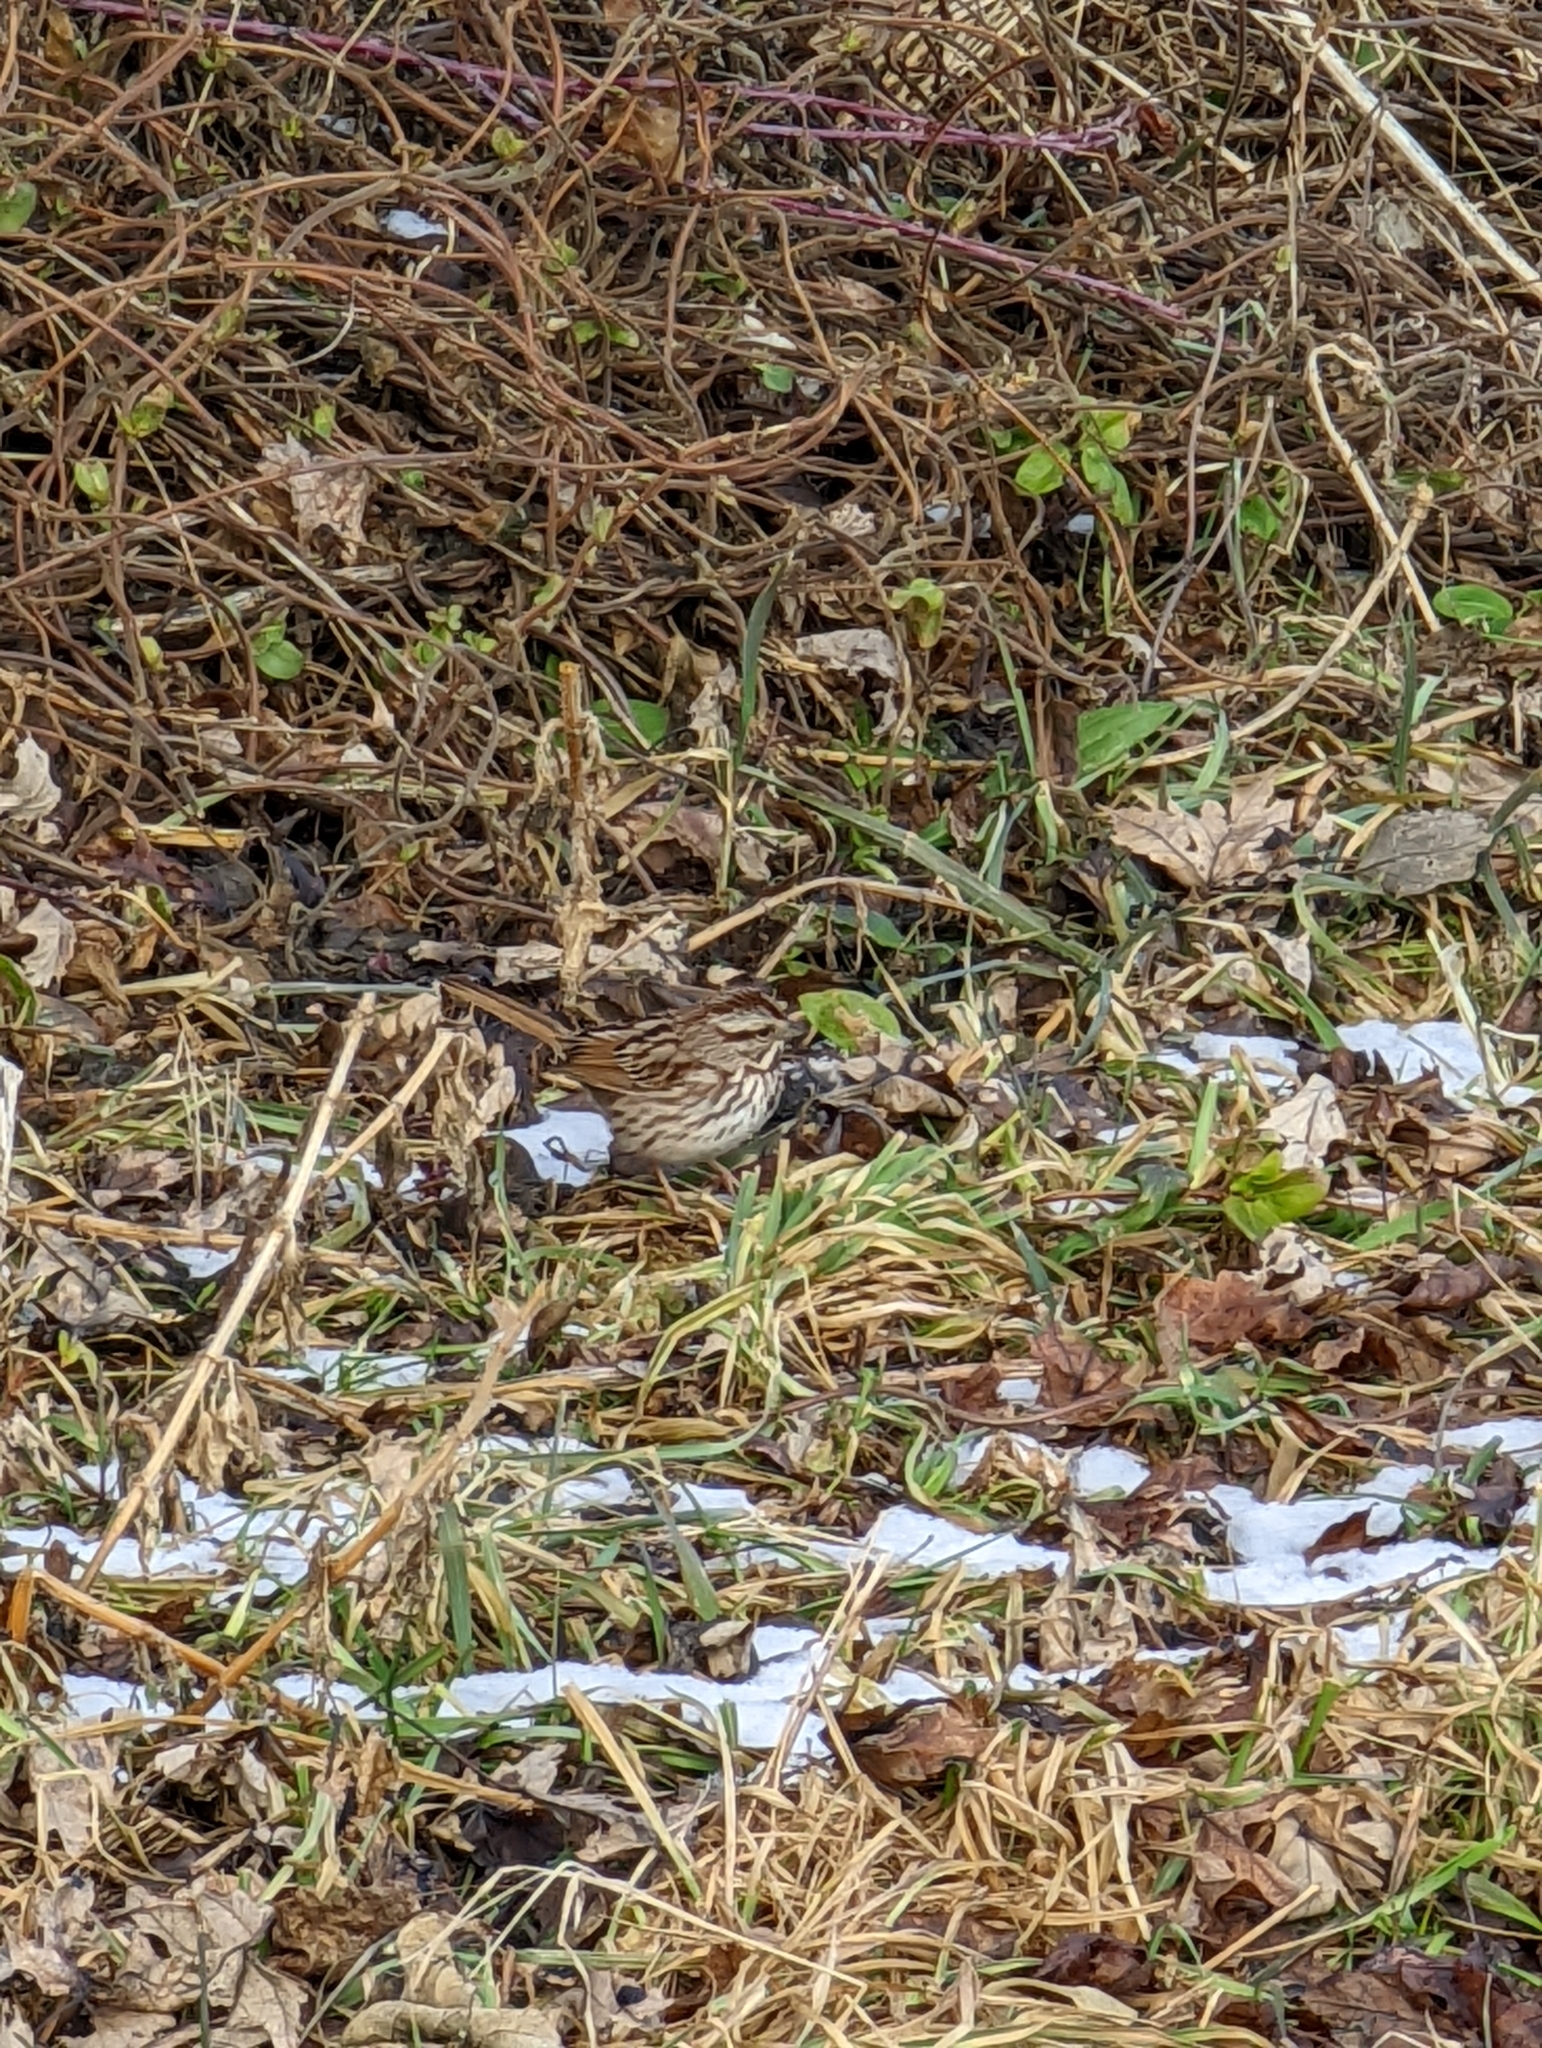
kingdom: Animalia
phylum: Chordata
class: Aves
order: Passeriformes
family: Passerellidae
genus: Melospiza
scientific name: Melospiza melodia
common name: Song sparrow
